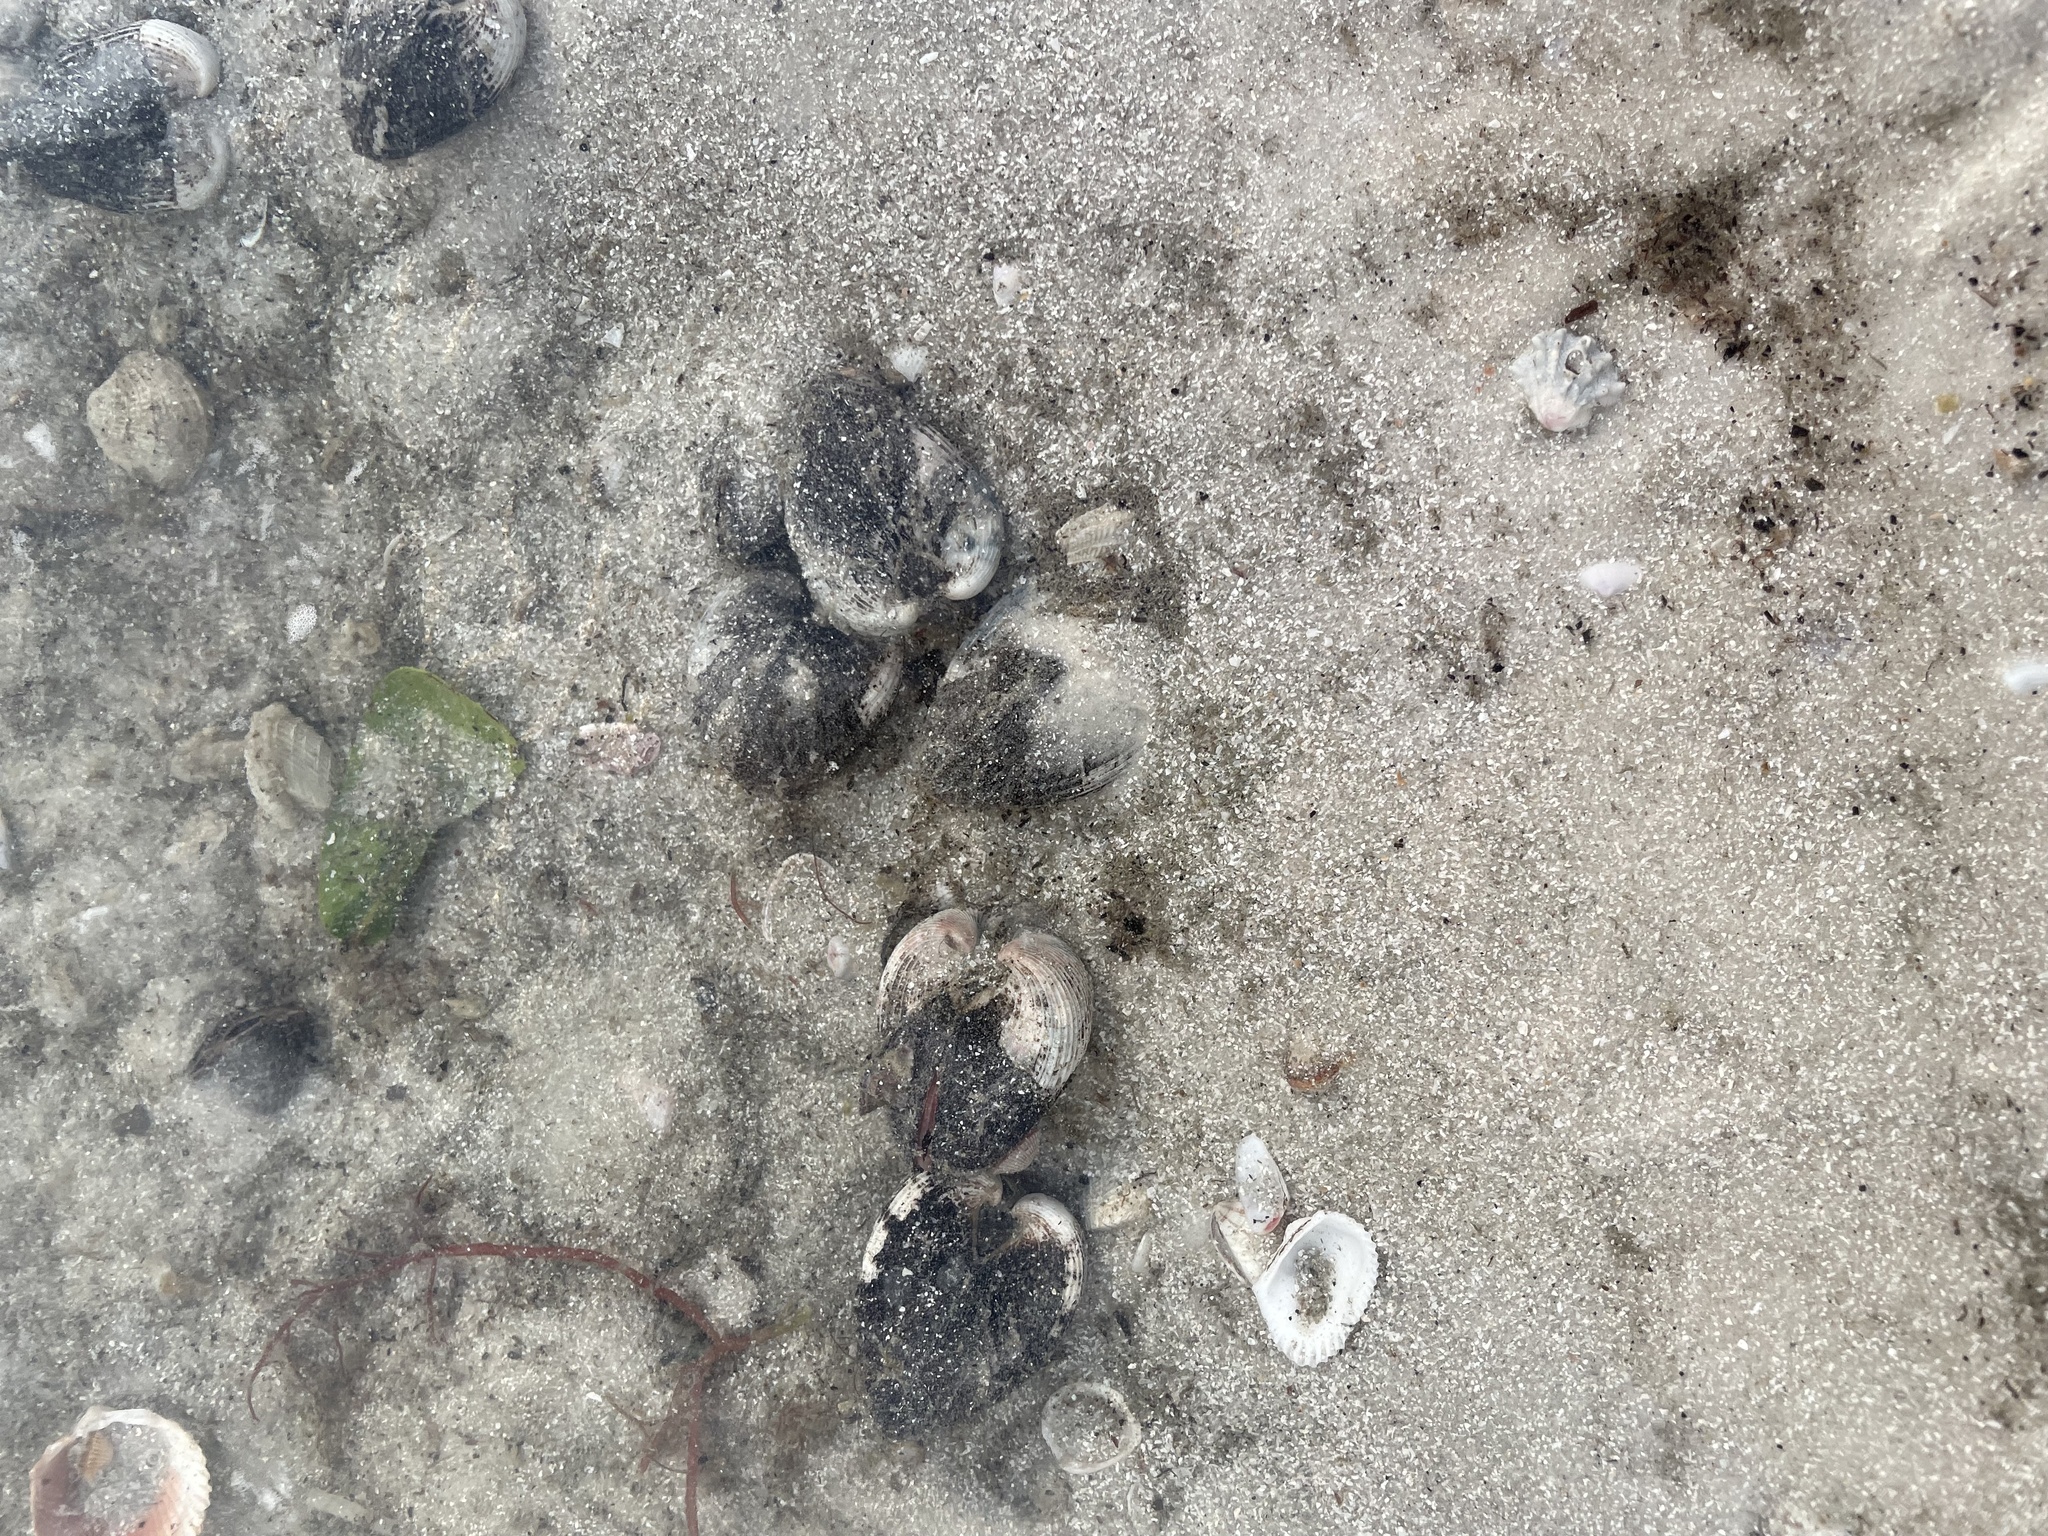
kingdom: Animalia
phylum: Mollusca
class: Bivalvia
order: Arcida
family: Noetiidae
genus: Noetia
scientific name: Noetia ponderosa
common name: Ponderous ark
